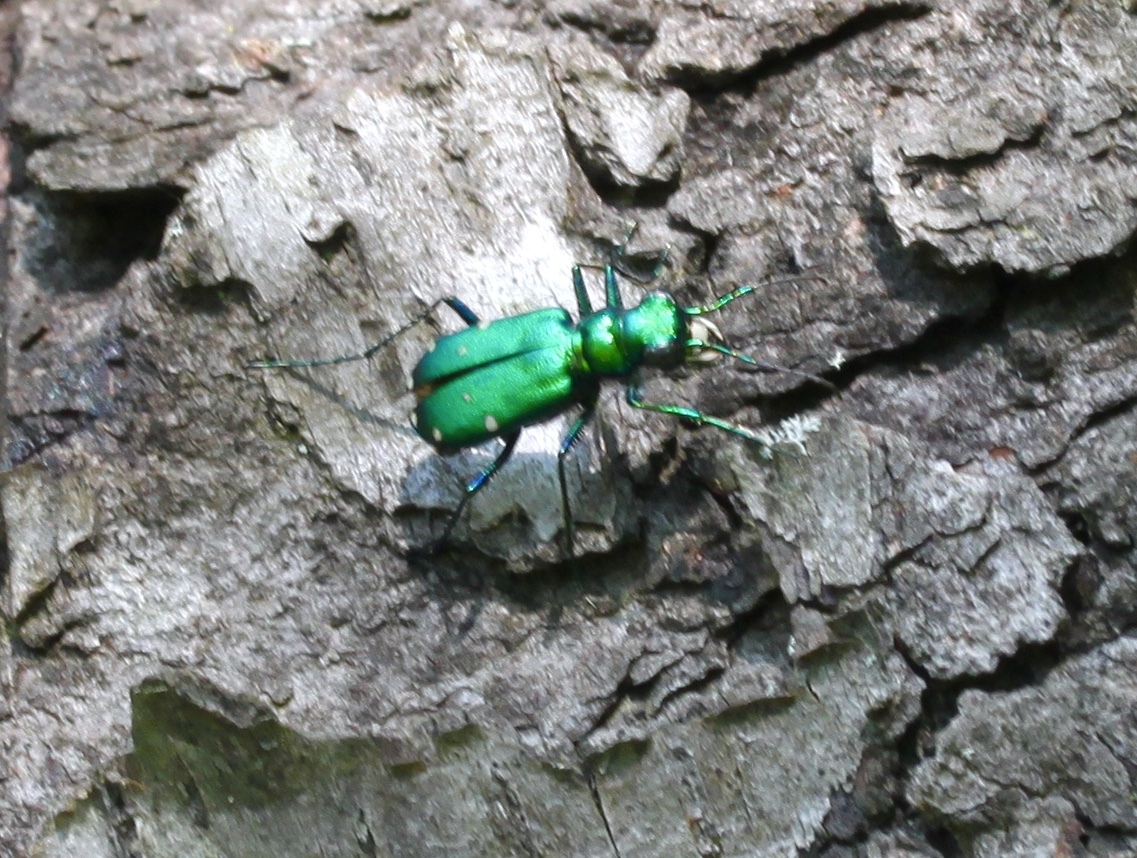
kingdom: Animalia
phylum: Arthropoda
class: Insecta
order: Coleoptera
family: Carabidae
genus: Cicindela
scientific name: Cicindela sexguttata
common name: Six-spotted tiger beetle
